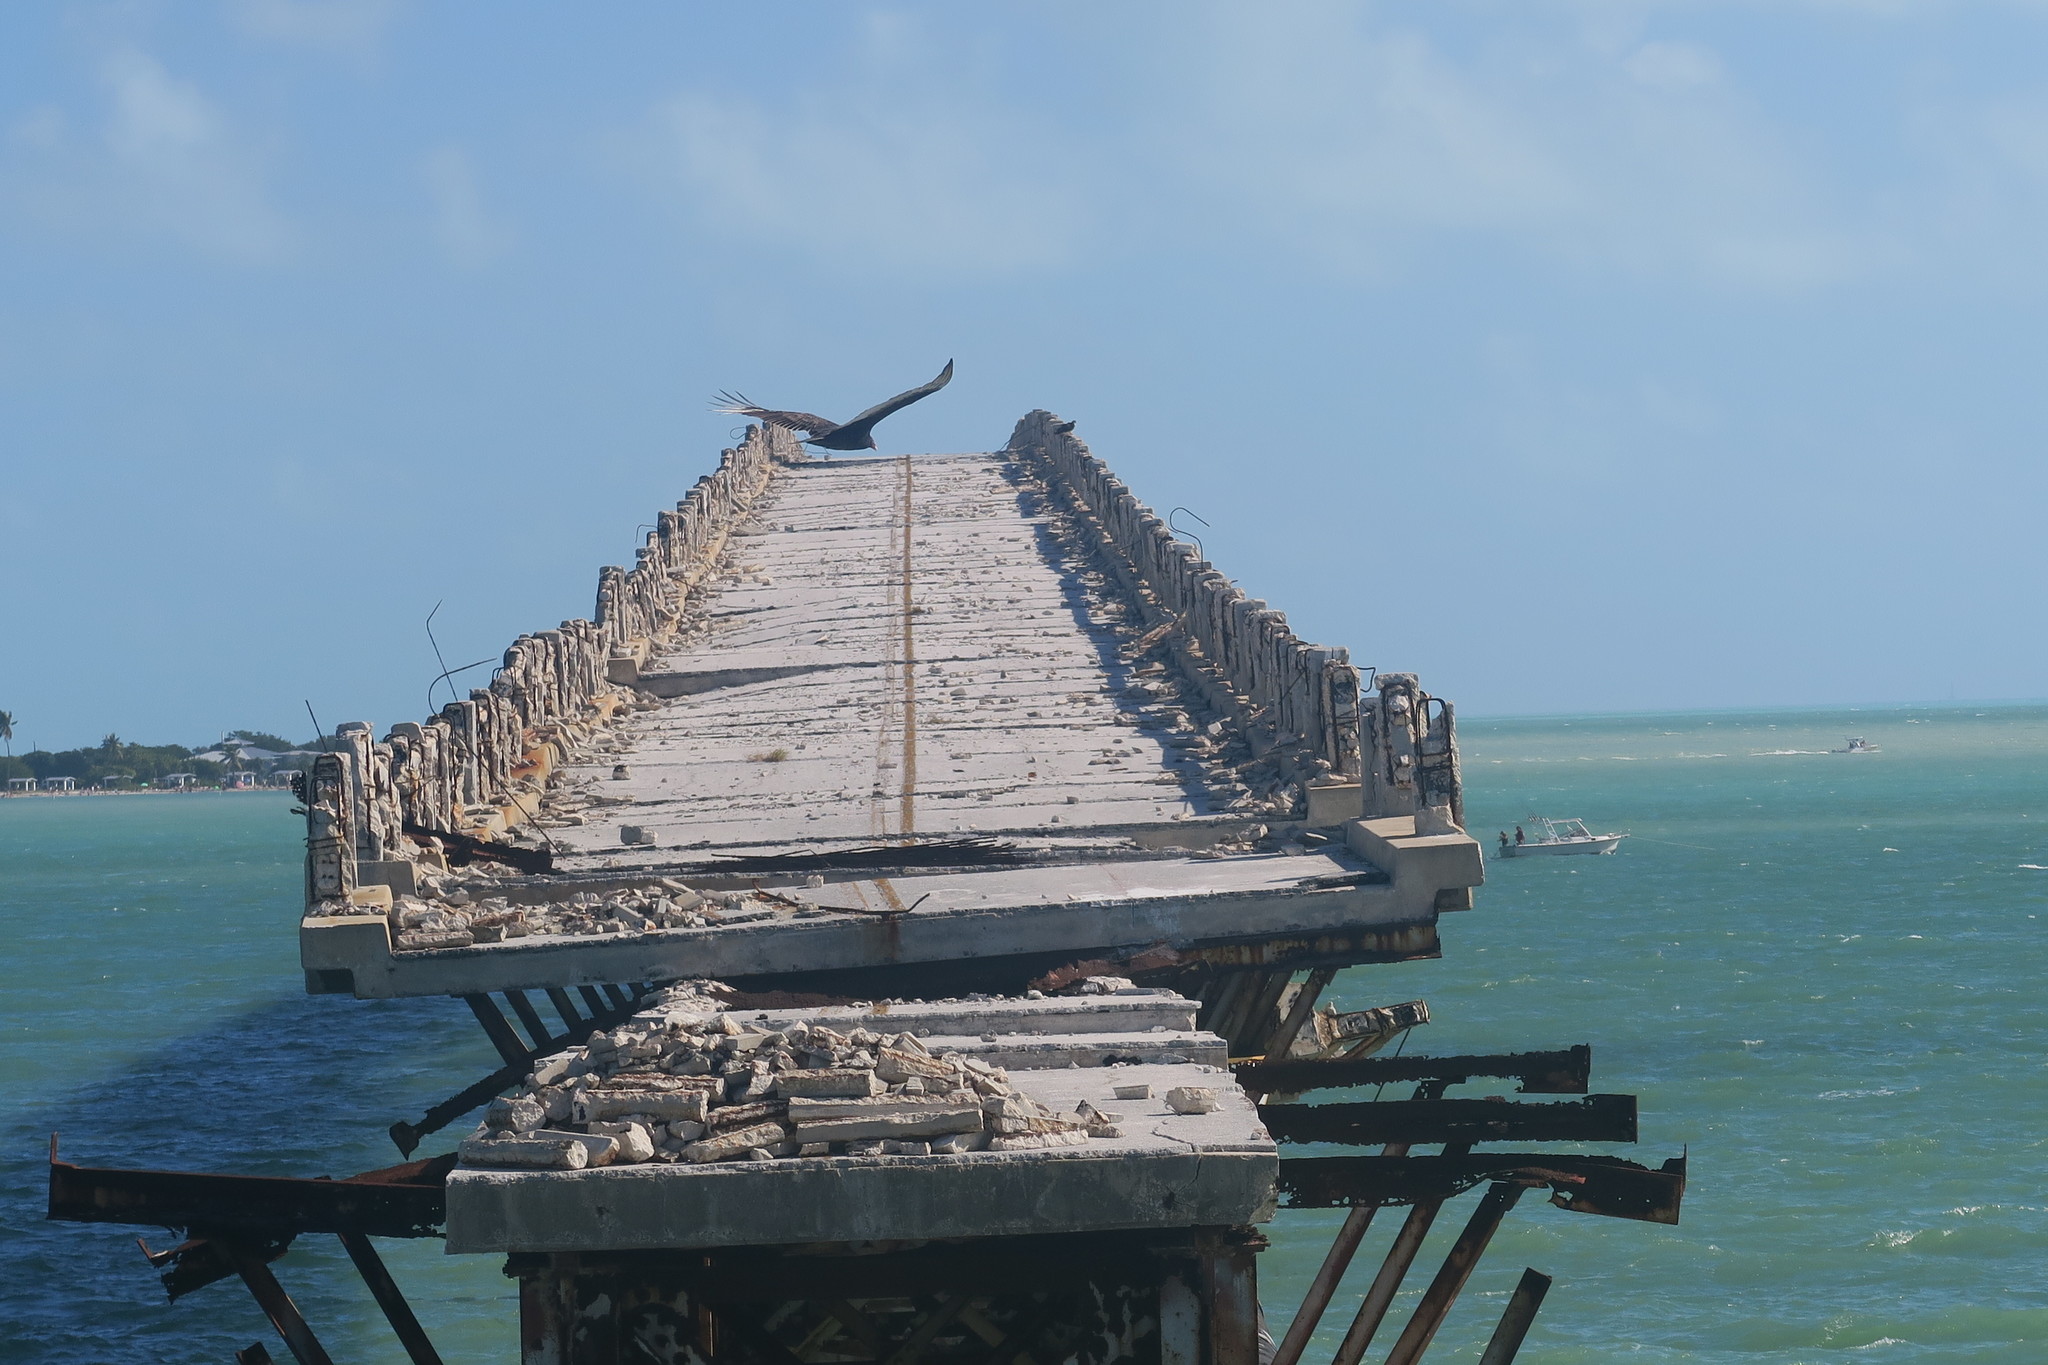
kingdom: Animalia
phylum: Chordata
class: Aves
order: Accipitriformes
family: Cathartidae
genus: Cathartes
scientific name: Cathartes aura
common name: Turkey vulture
